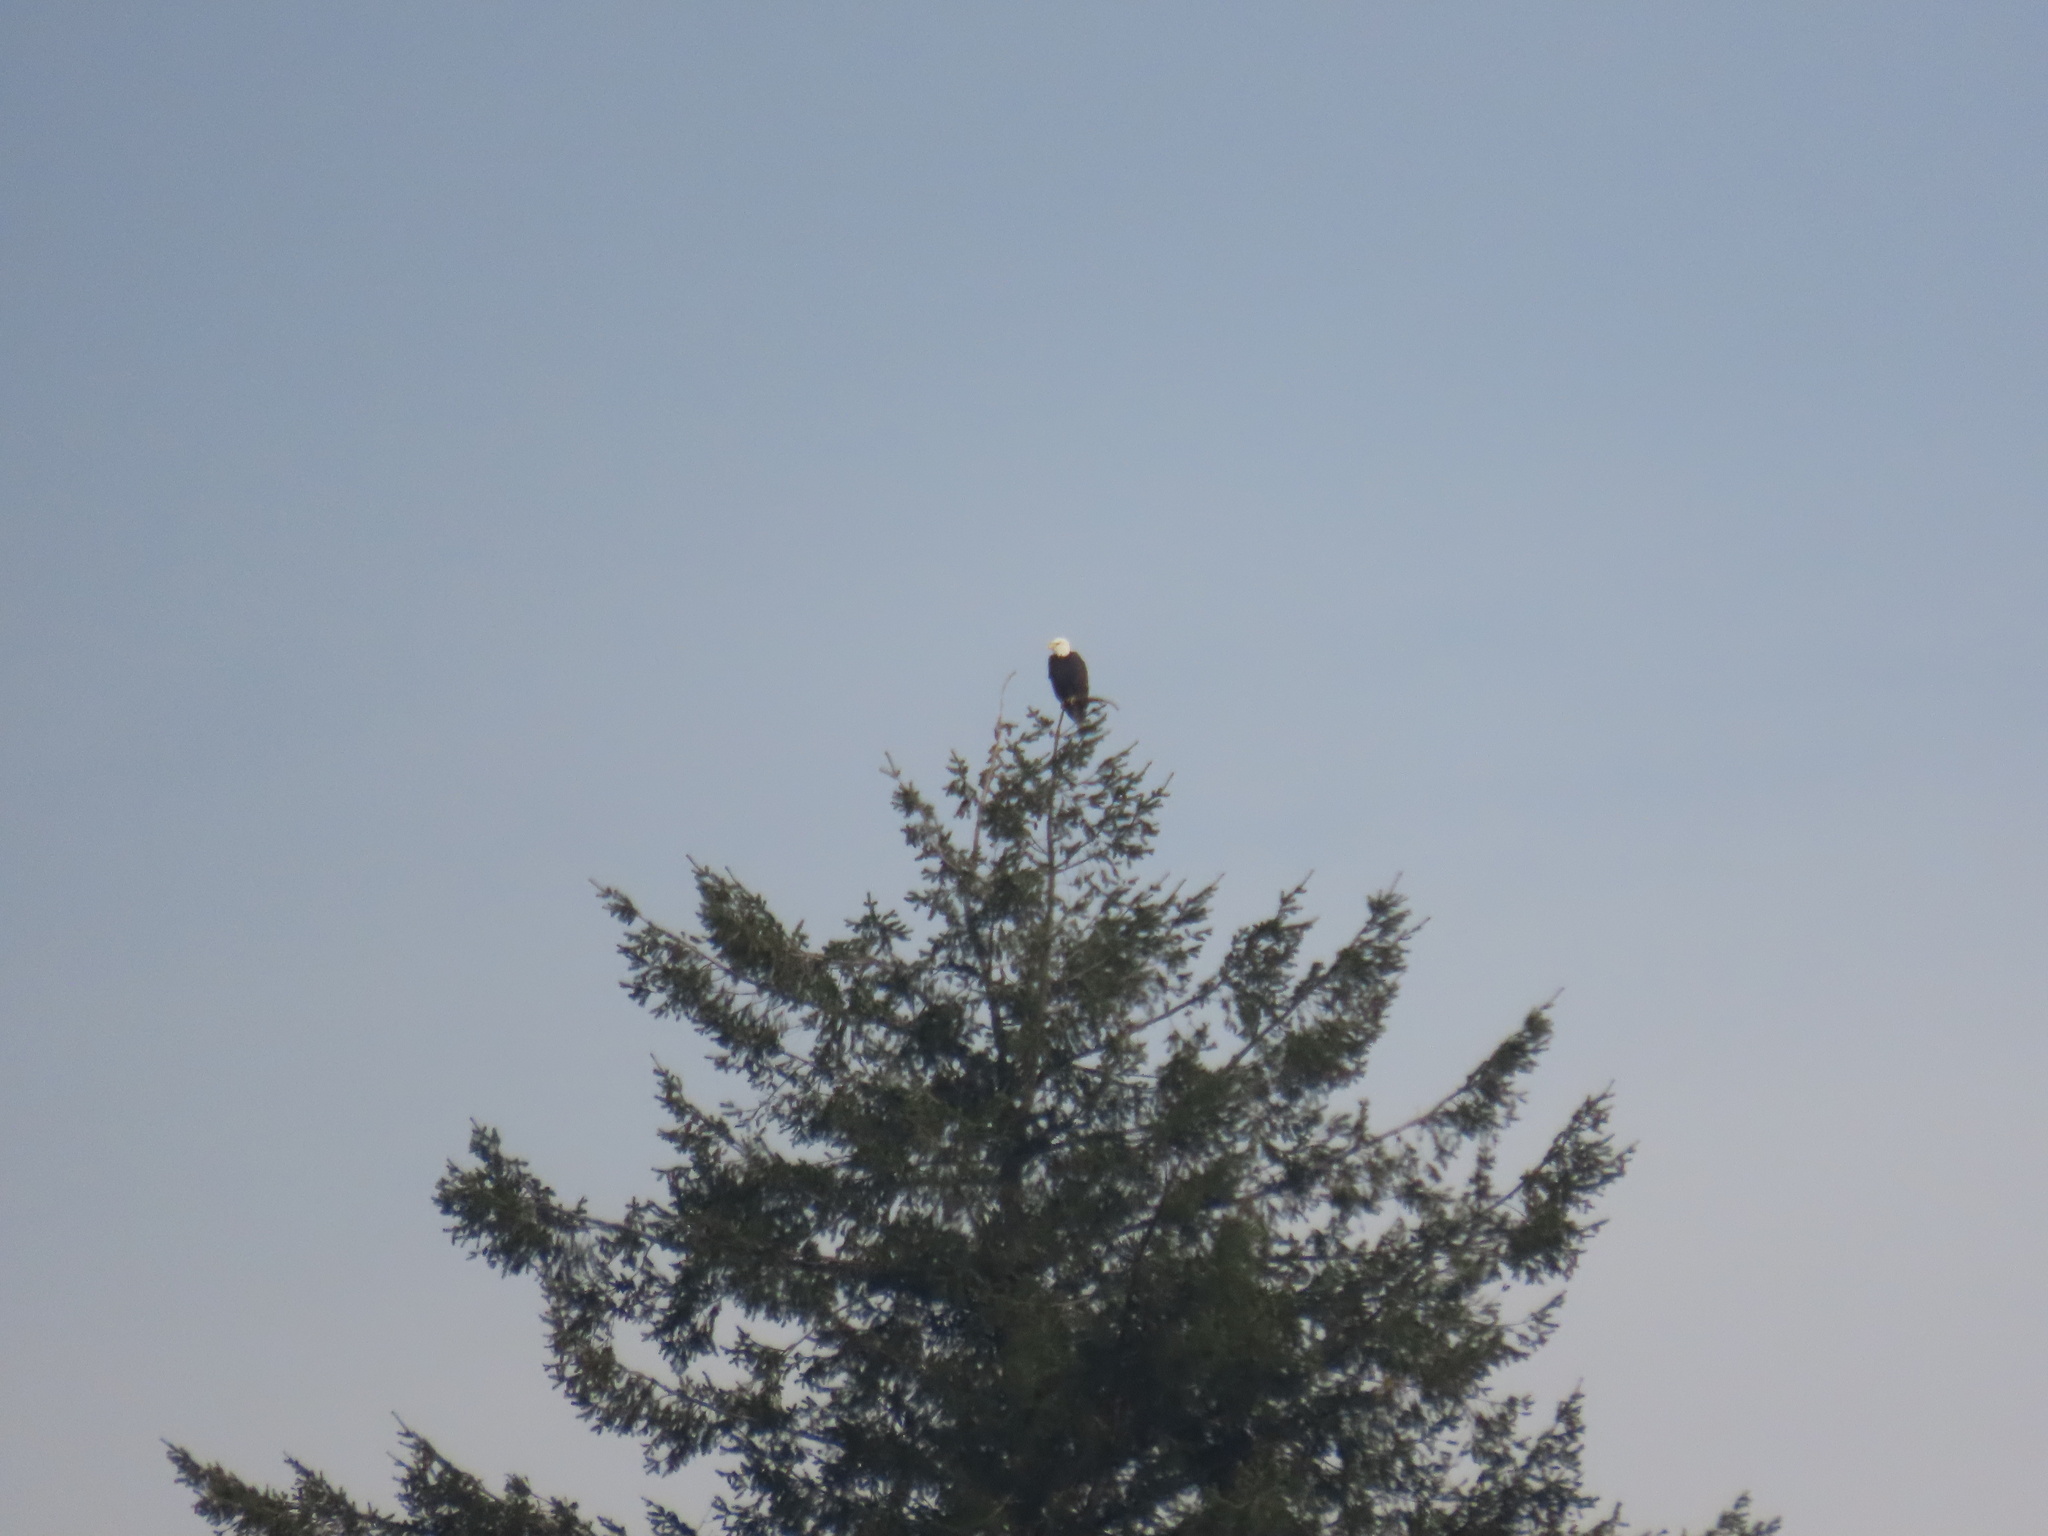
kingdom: Animalia
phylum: Chordata
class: Aves
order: Accipitriformes
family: Accipitridae
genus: Haliaeetus
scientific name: Haliaeetus leucocephalus
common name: Bald eagle
